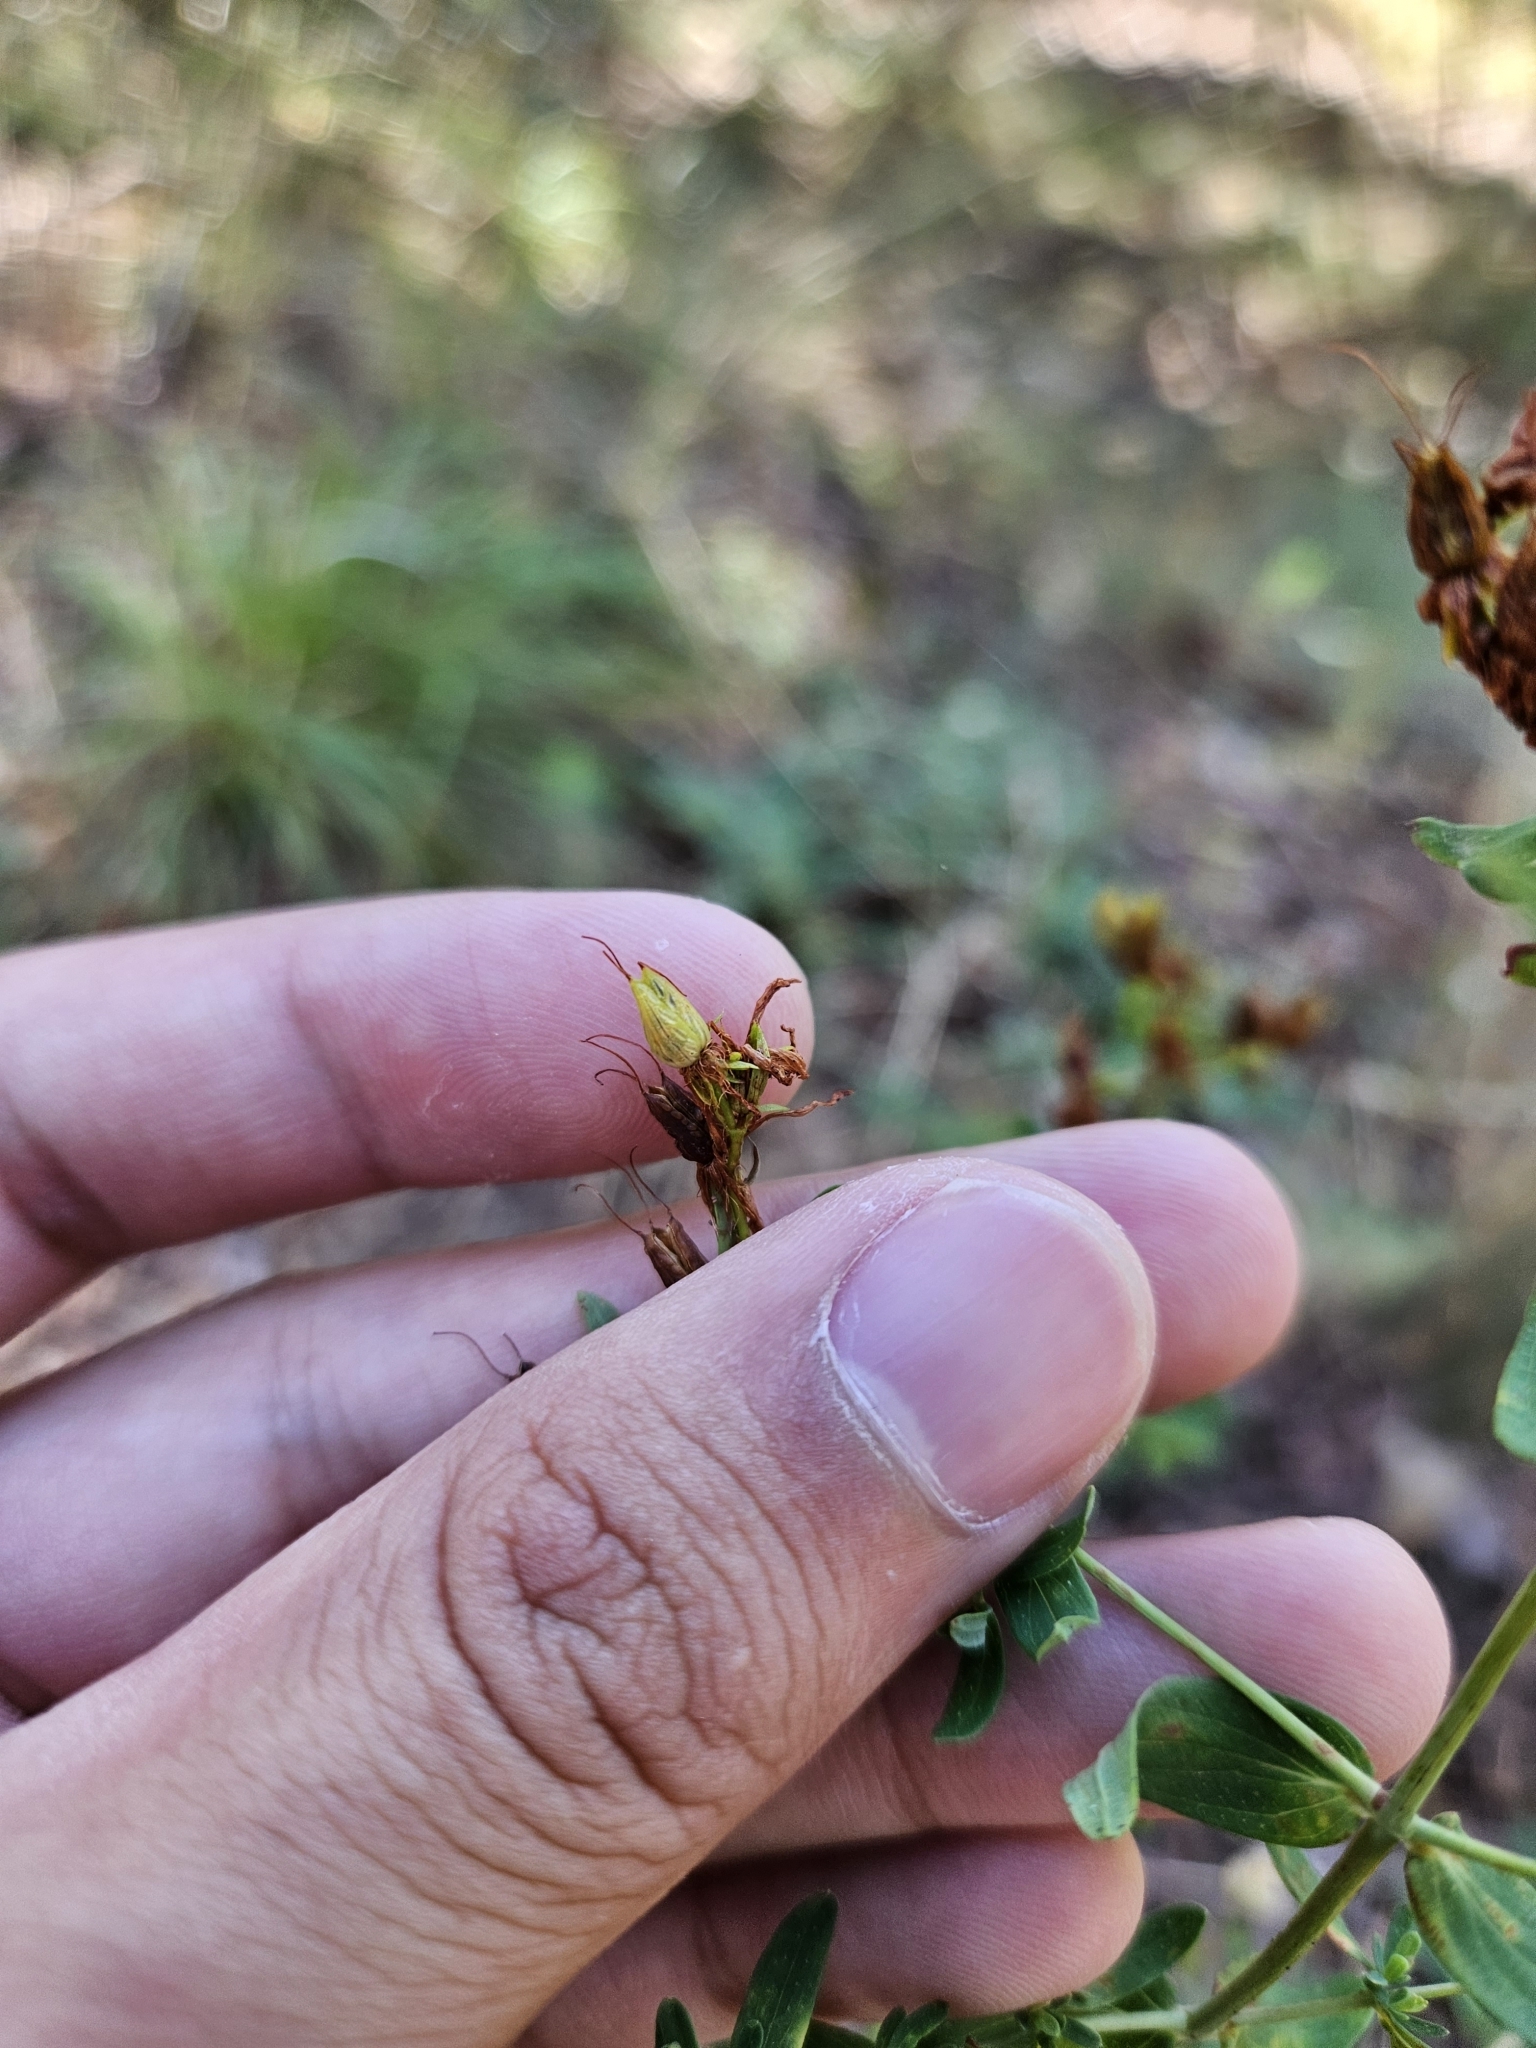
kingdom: Plantae
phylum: Tracheophyta
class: Magnoliopsida
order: Malpighiales
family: Hypericaceae
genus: Hypericum
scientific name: Hypericum perforatum
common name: Common st. johnswort
